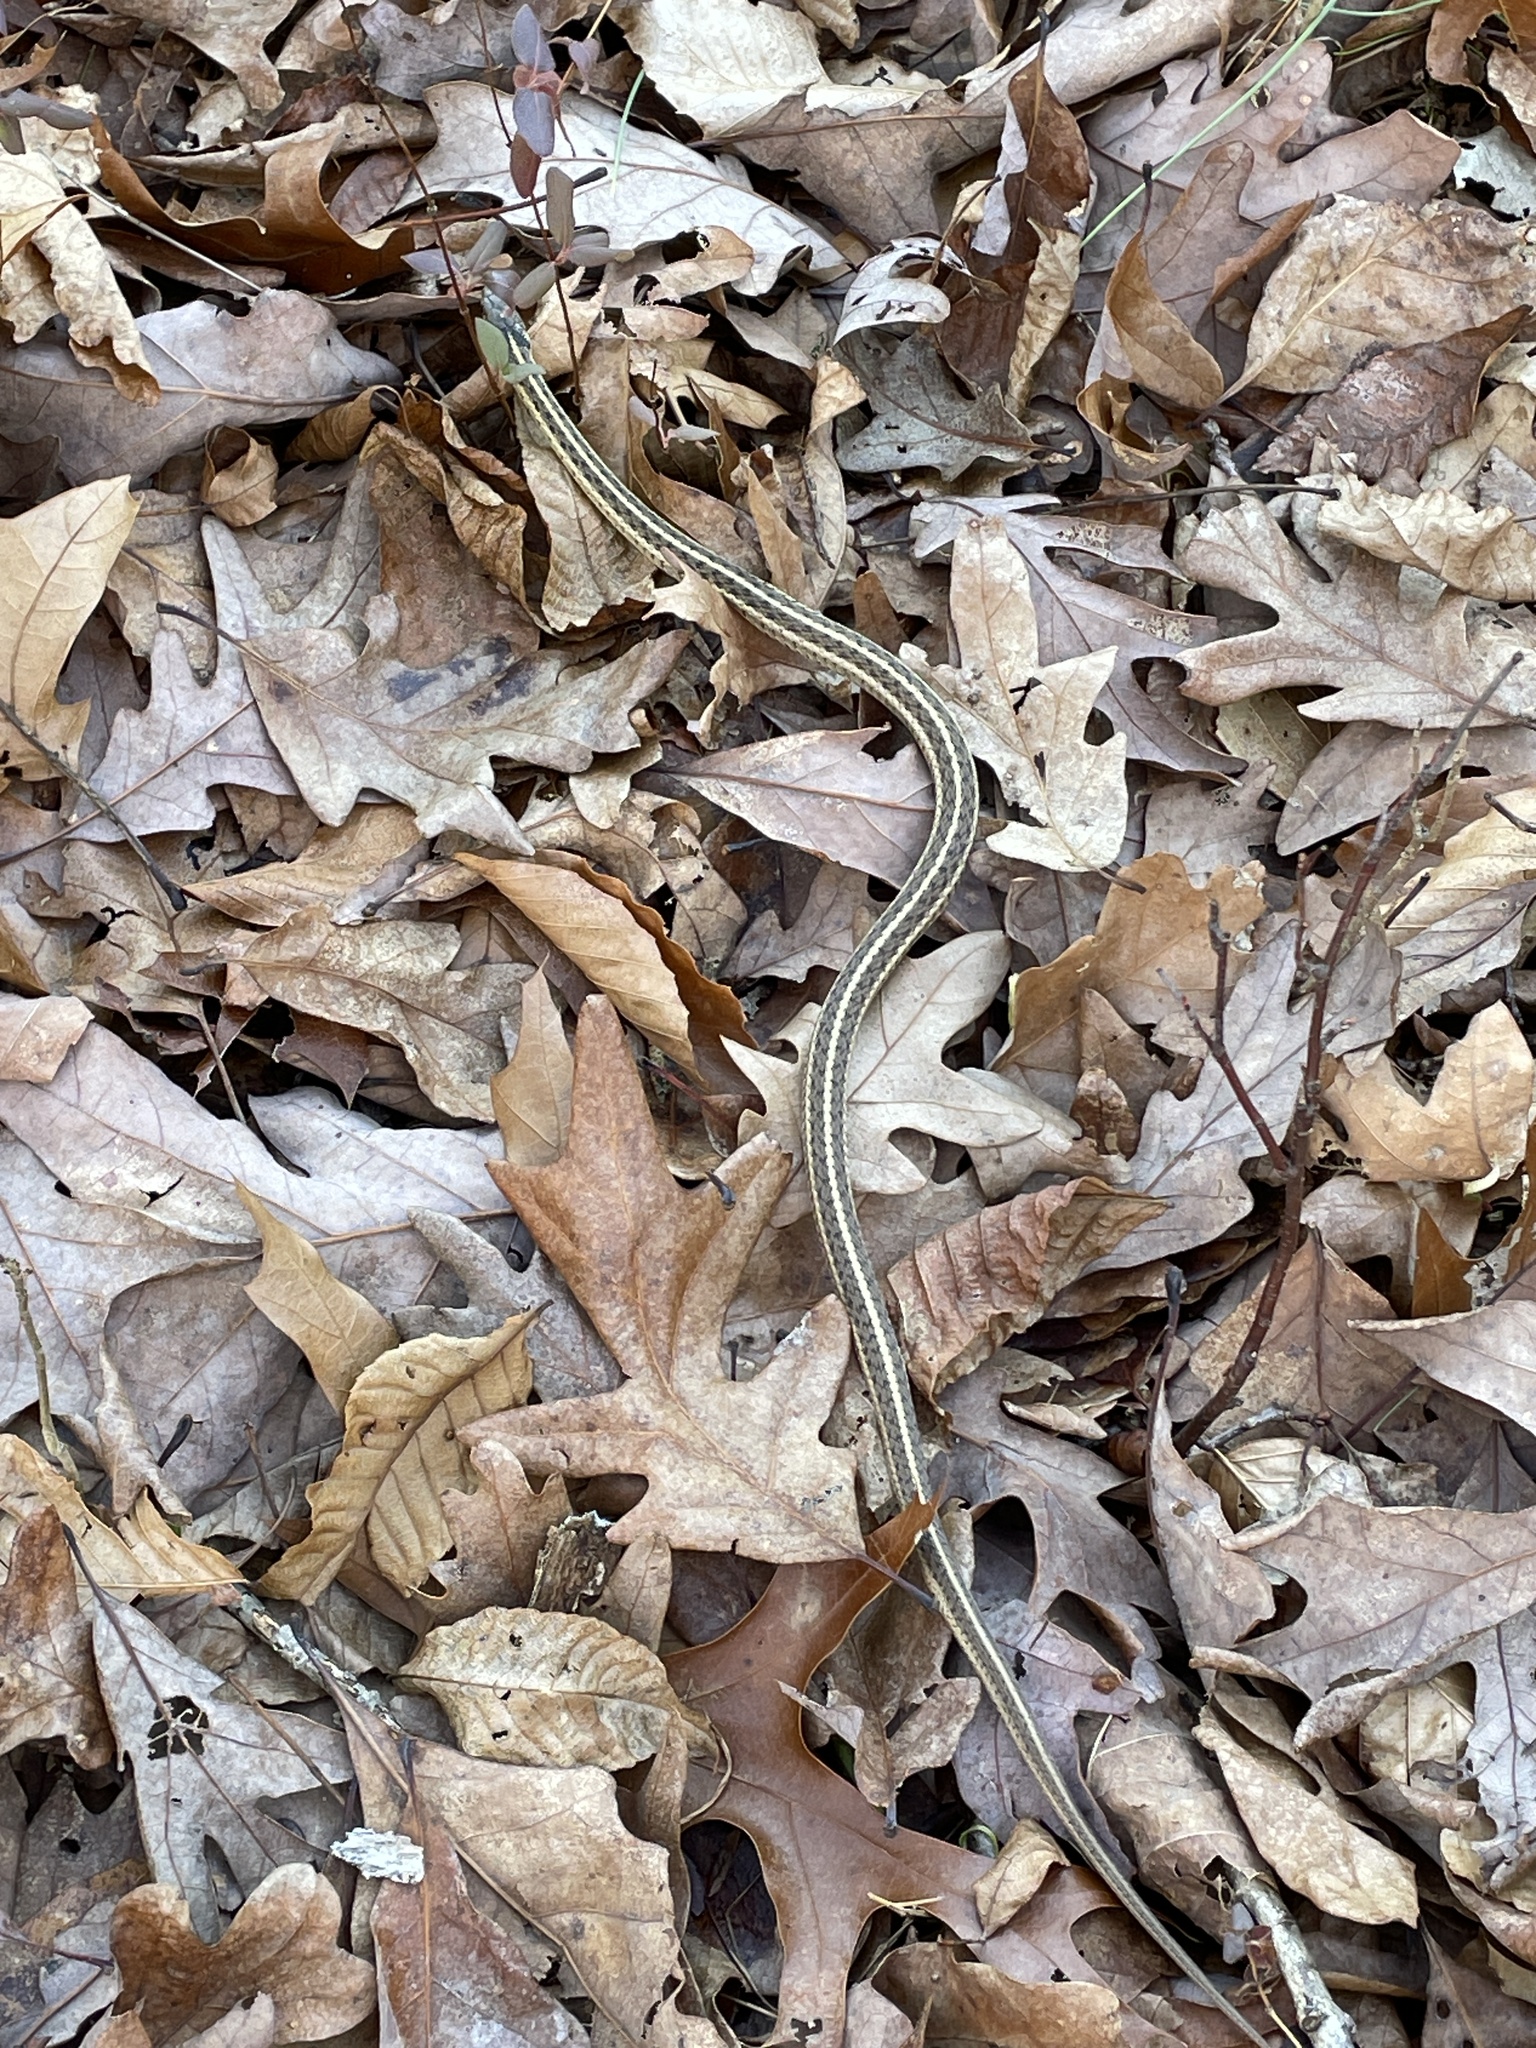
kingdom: Animalia
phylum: Chordata
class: Squamata
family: Colubridae
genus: Thamnophis
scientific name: Thamnophis sirtalis
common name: Common garter snake
